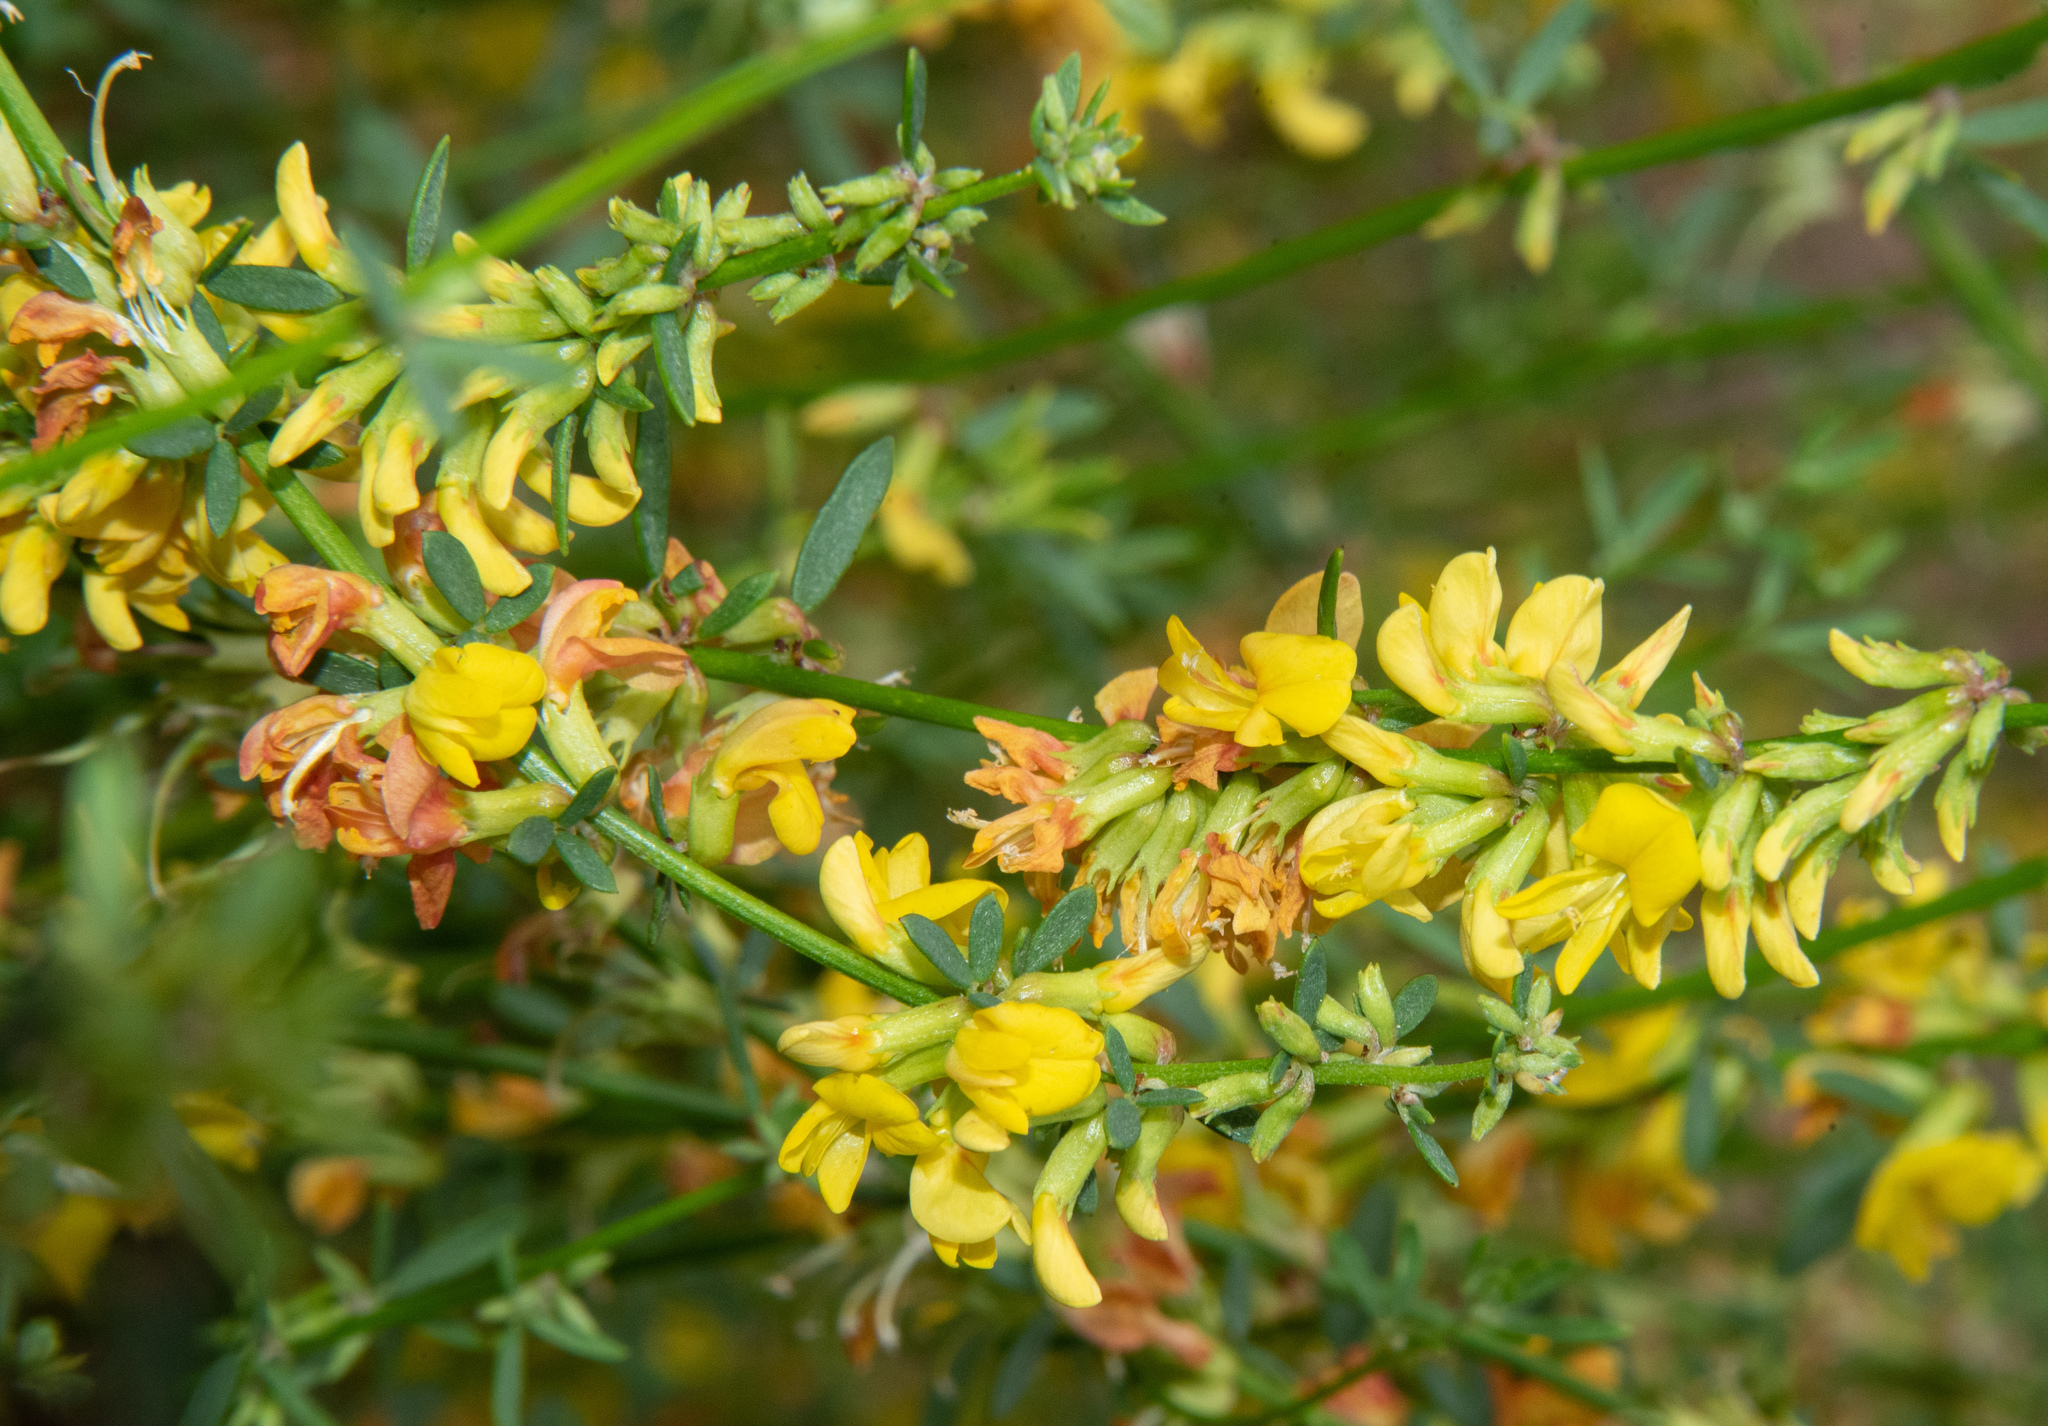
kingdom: Plantae
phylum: Tracheophyta
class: Magnoliopsida
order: Fabales
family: Fabaceae
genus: Acmispon
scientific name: Acmispon glaber
